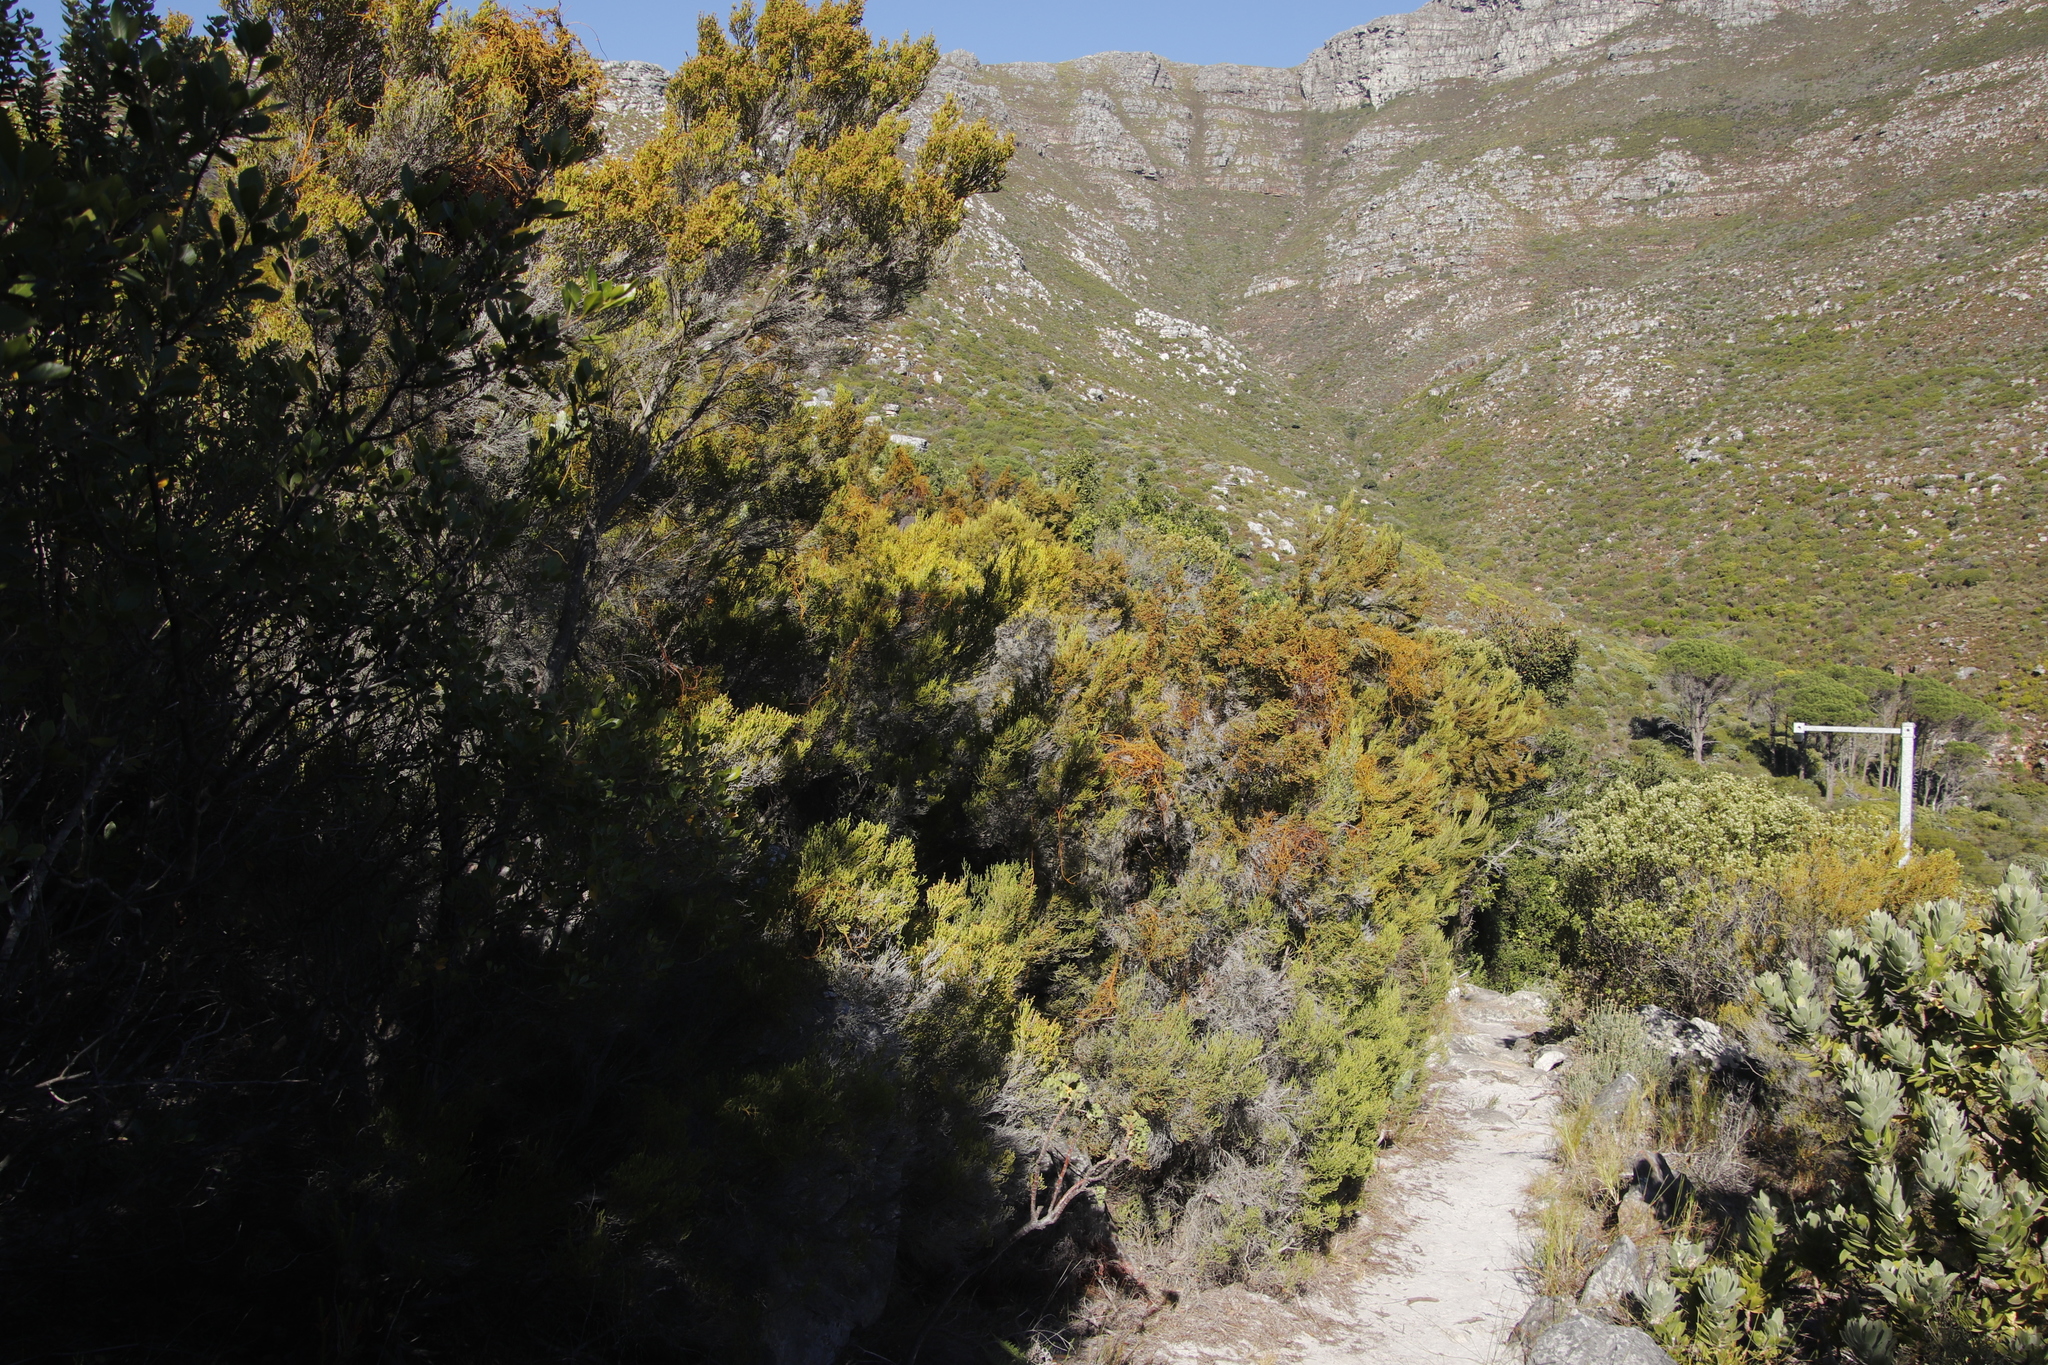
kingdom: Plantae
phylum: Tracheophyta
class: Magnoliopsida
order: Ericales
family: Ericaceae
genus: Erica
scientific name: Erica tristis
